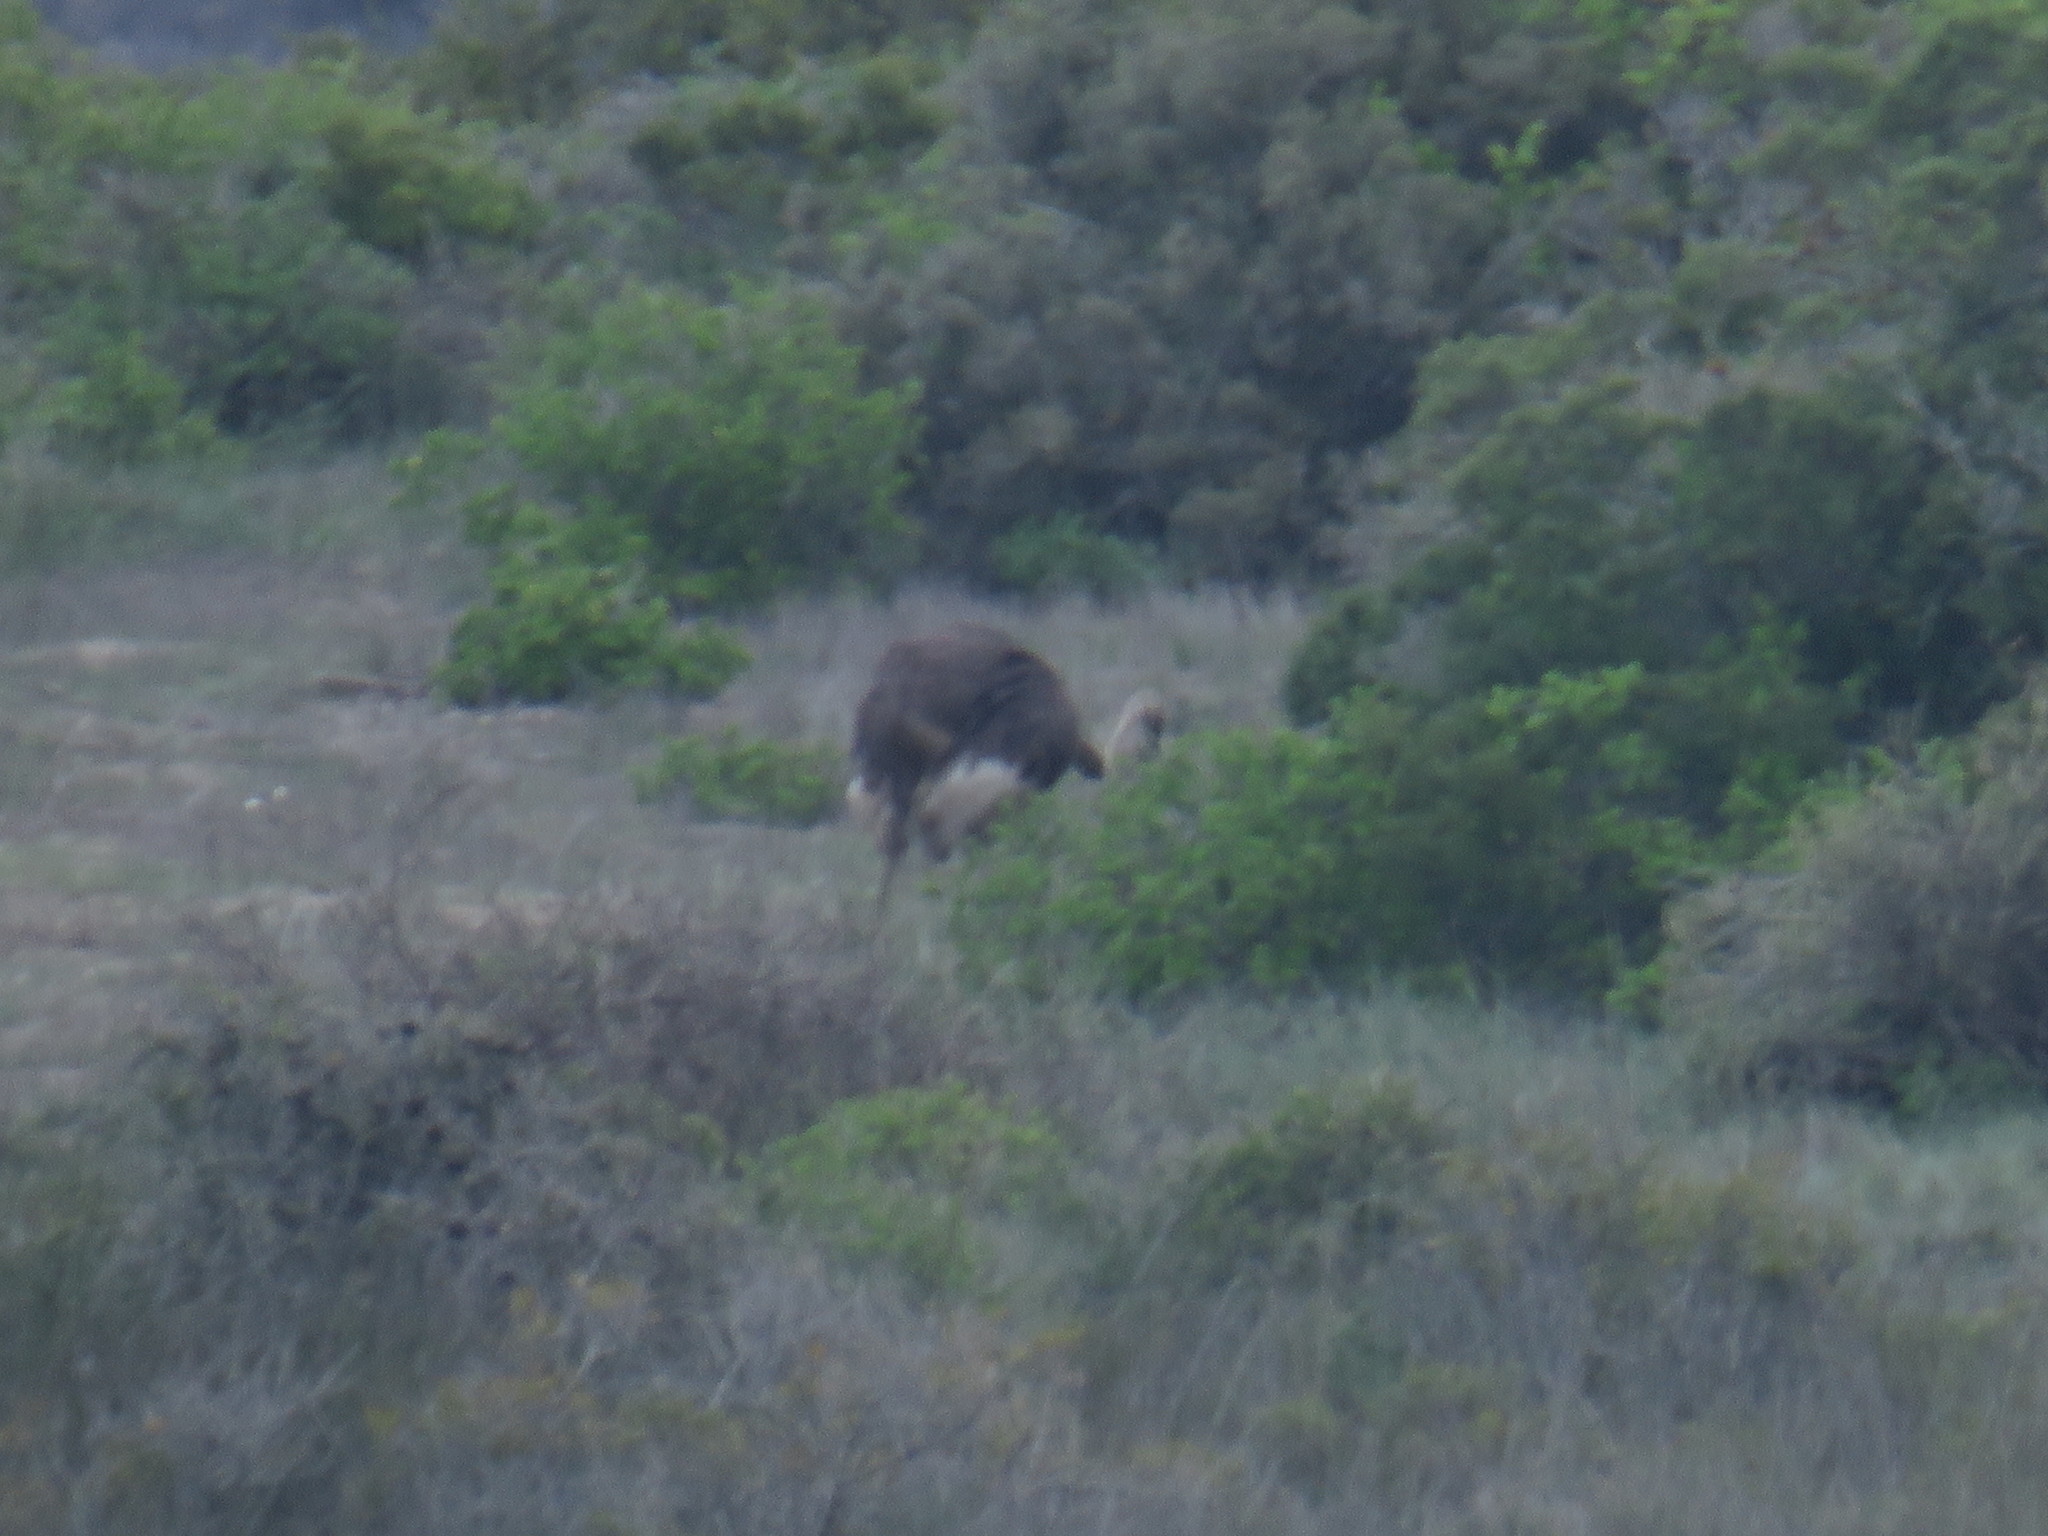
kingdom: Animalia
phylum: Chordata
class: Aves
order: Struthioniformes
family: Struthionidae
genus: Struthio
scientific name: Struthio camelus
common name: Common ostrich
